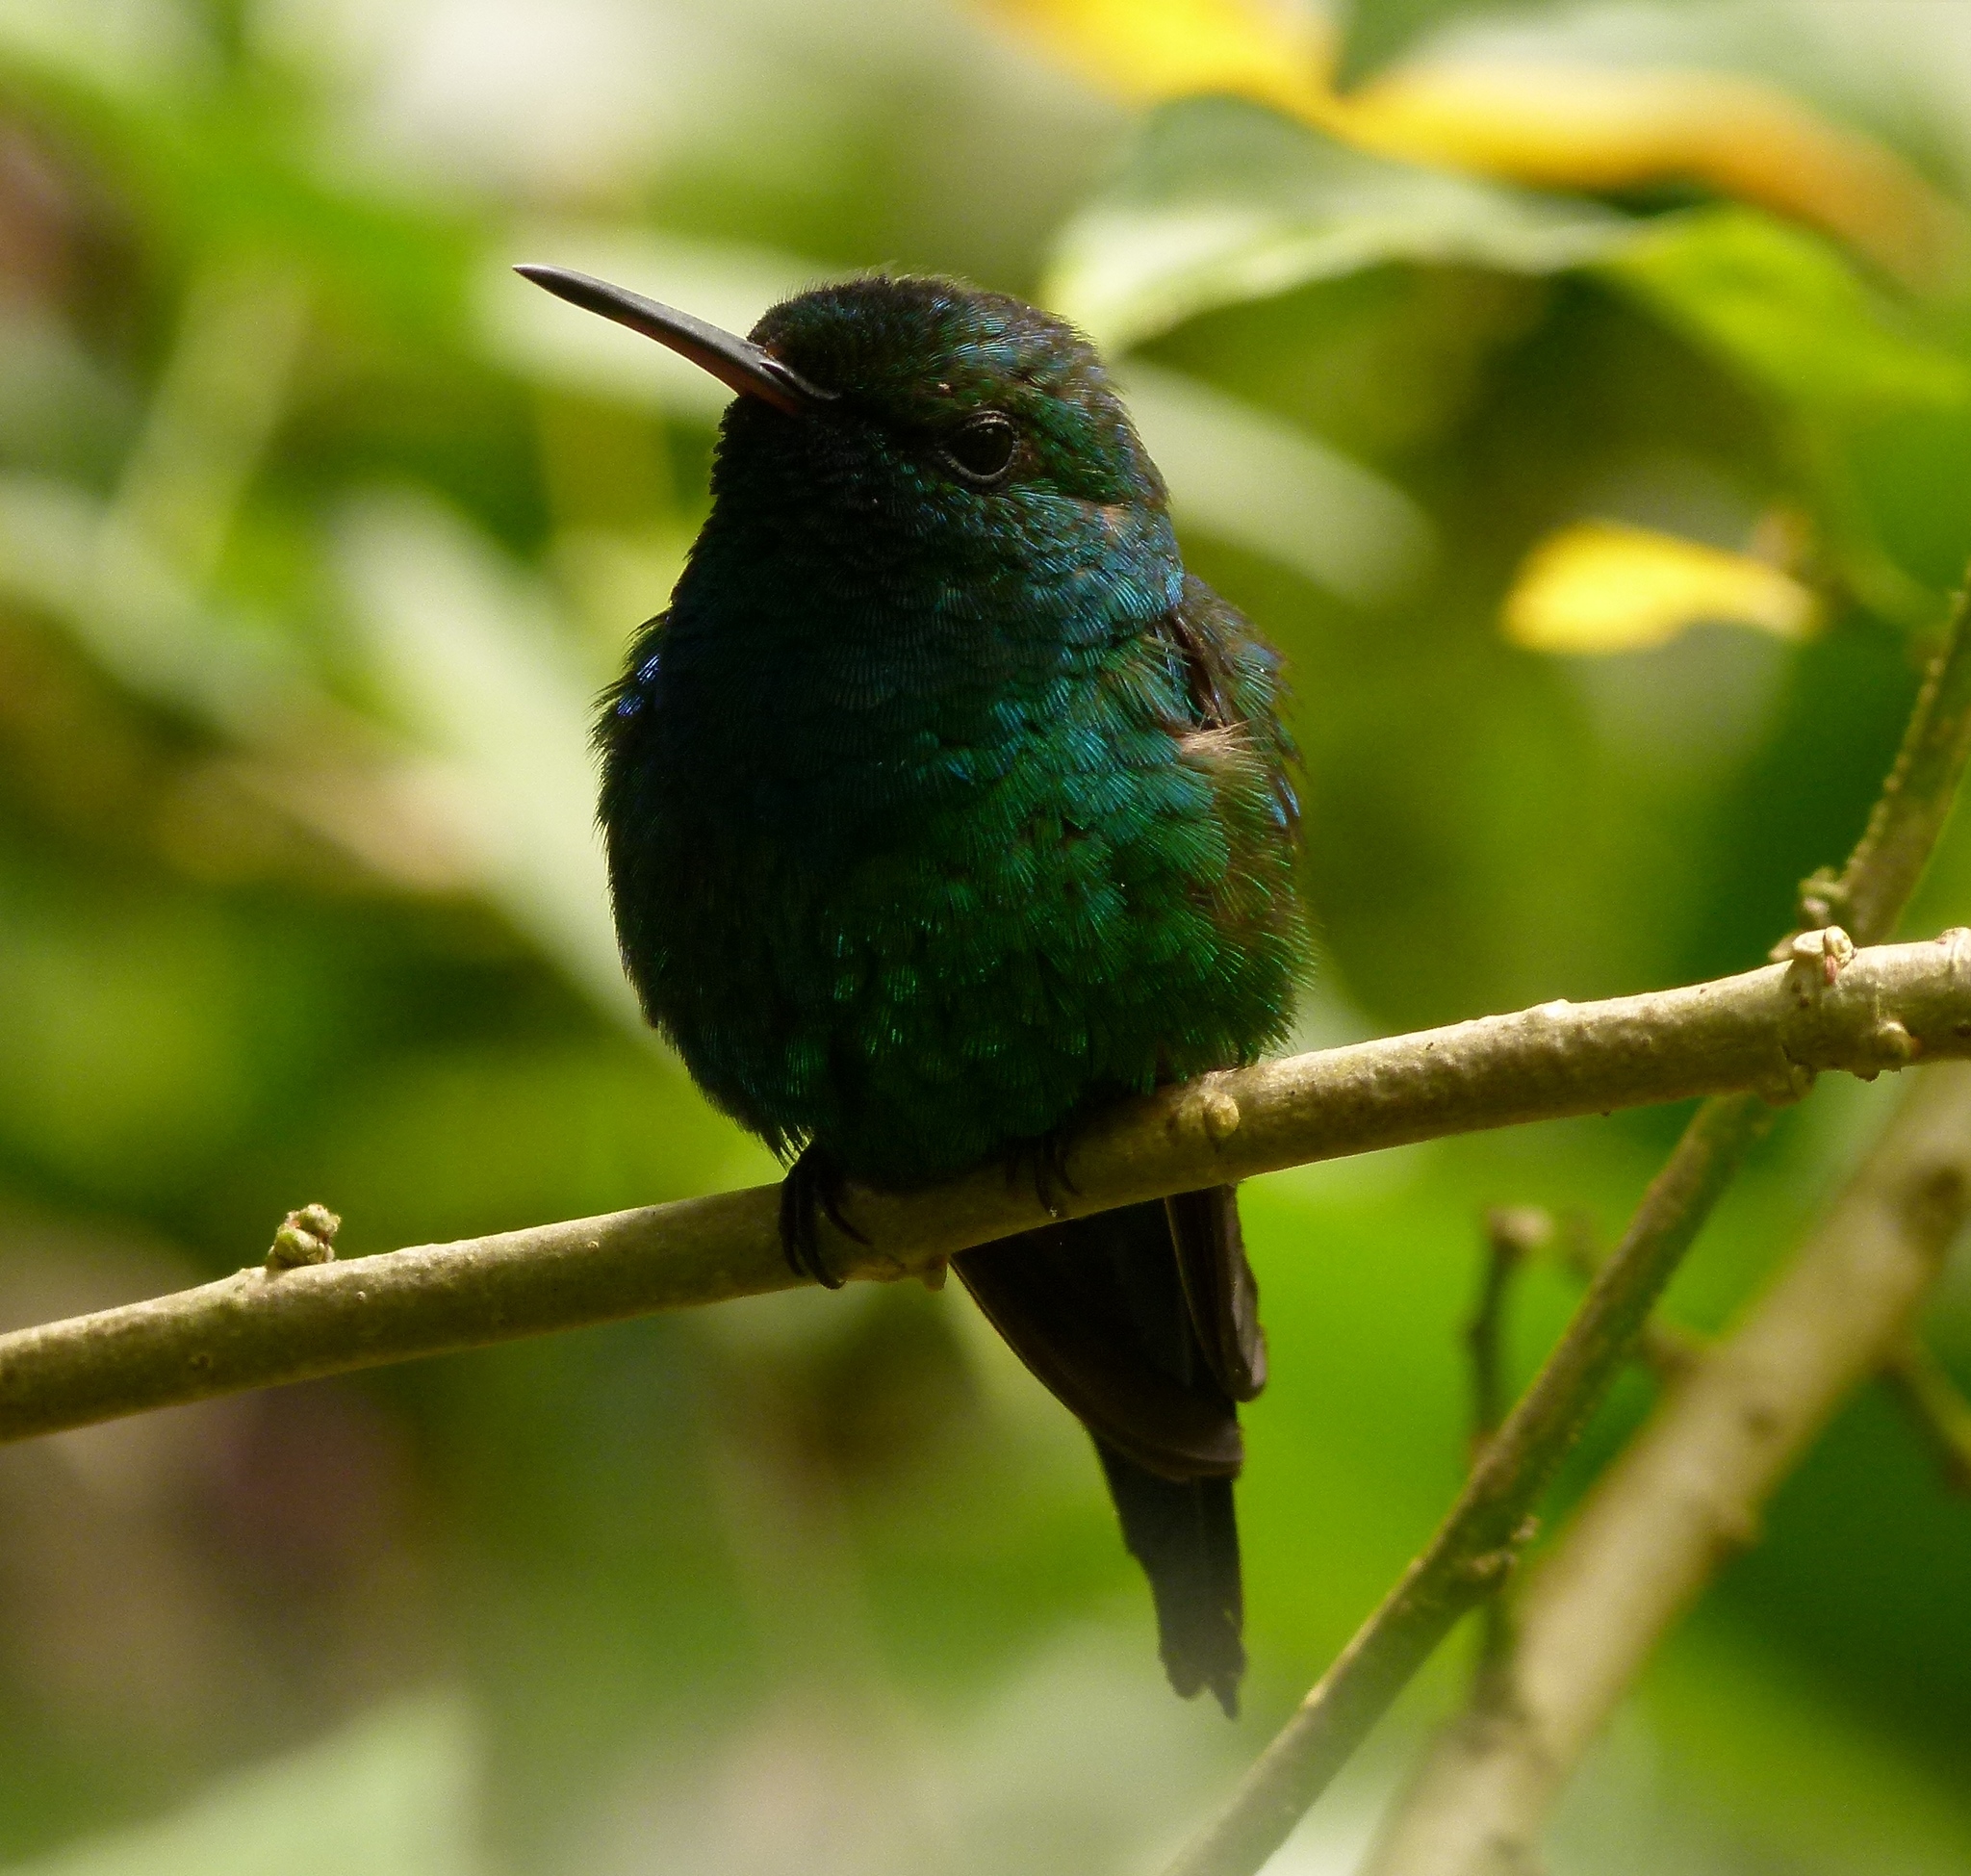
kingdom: Animalia
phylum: Chordata
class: Aves
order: Apodiformes
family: Trochilidae
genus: Riccordia
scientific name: Riccordia maugaeus
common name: Puerto rican emerald
